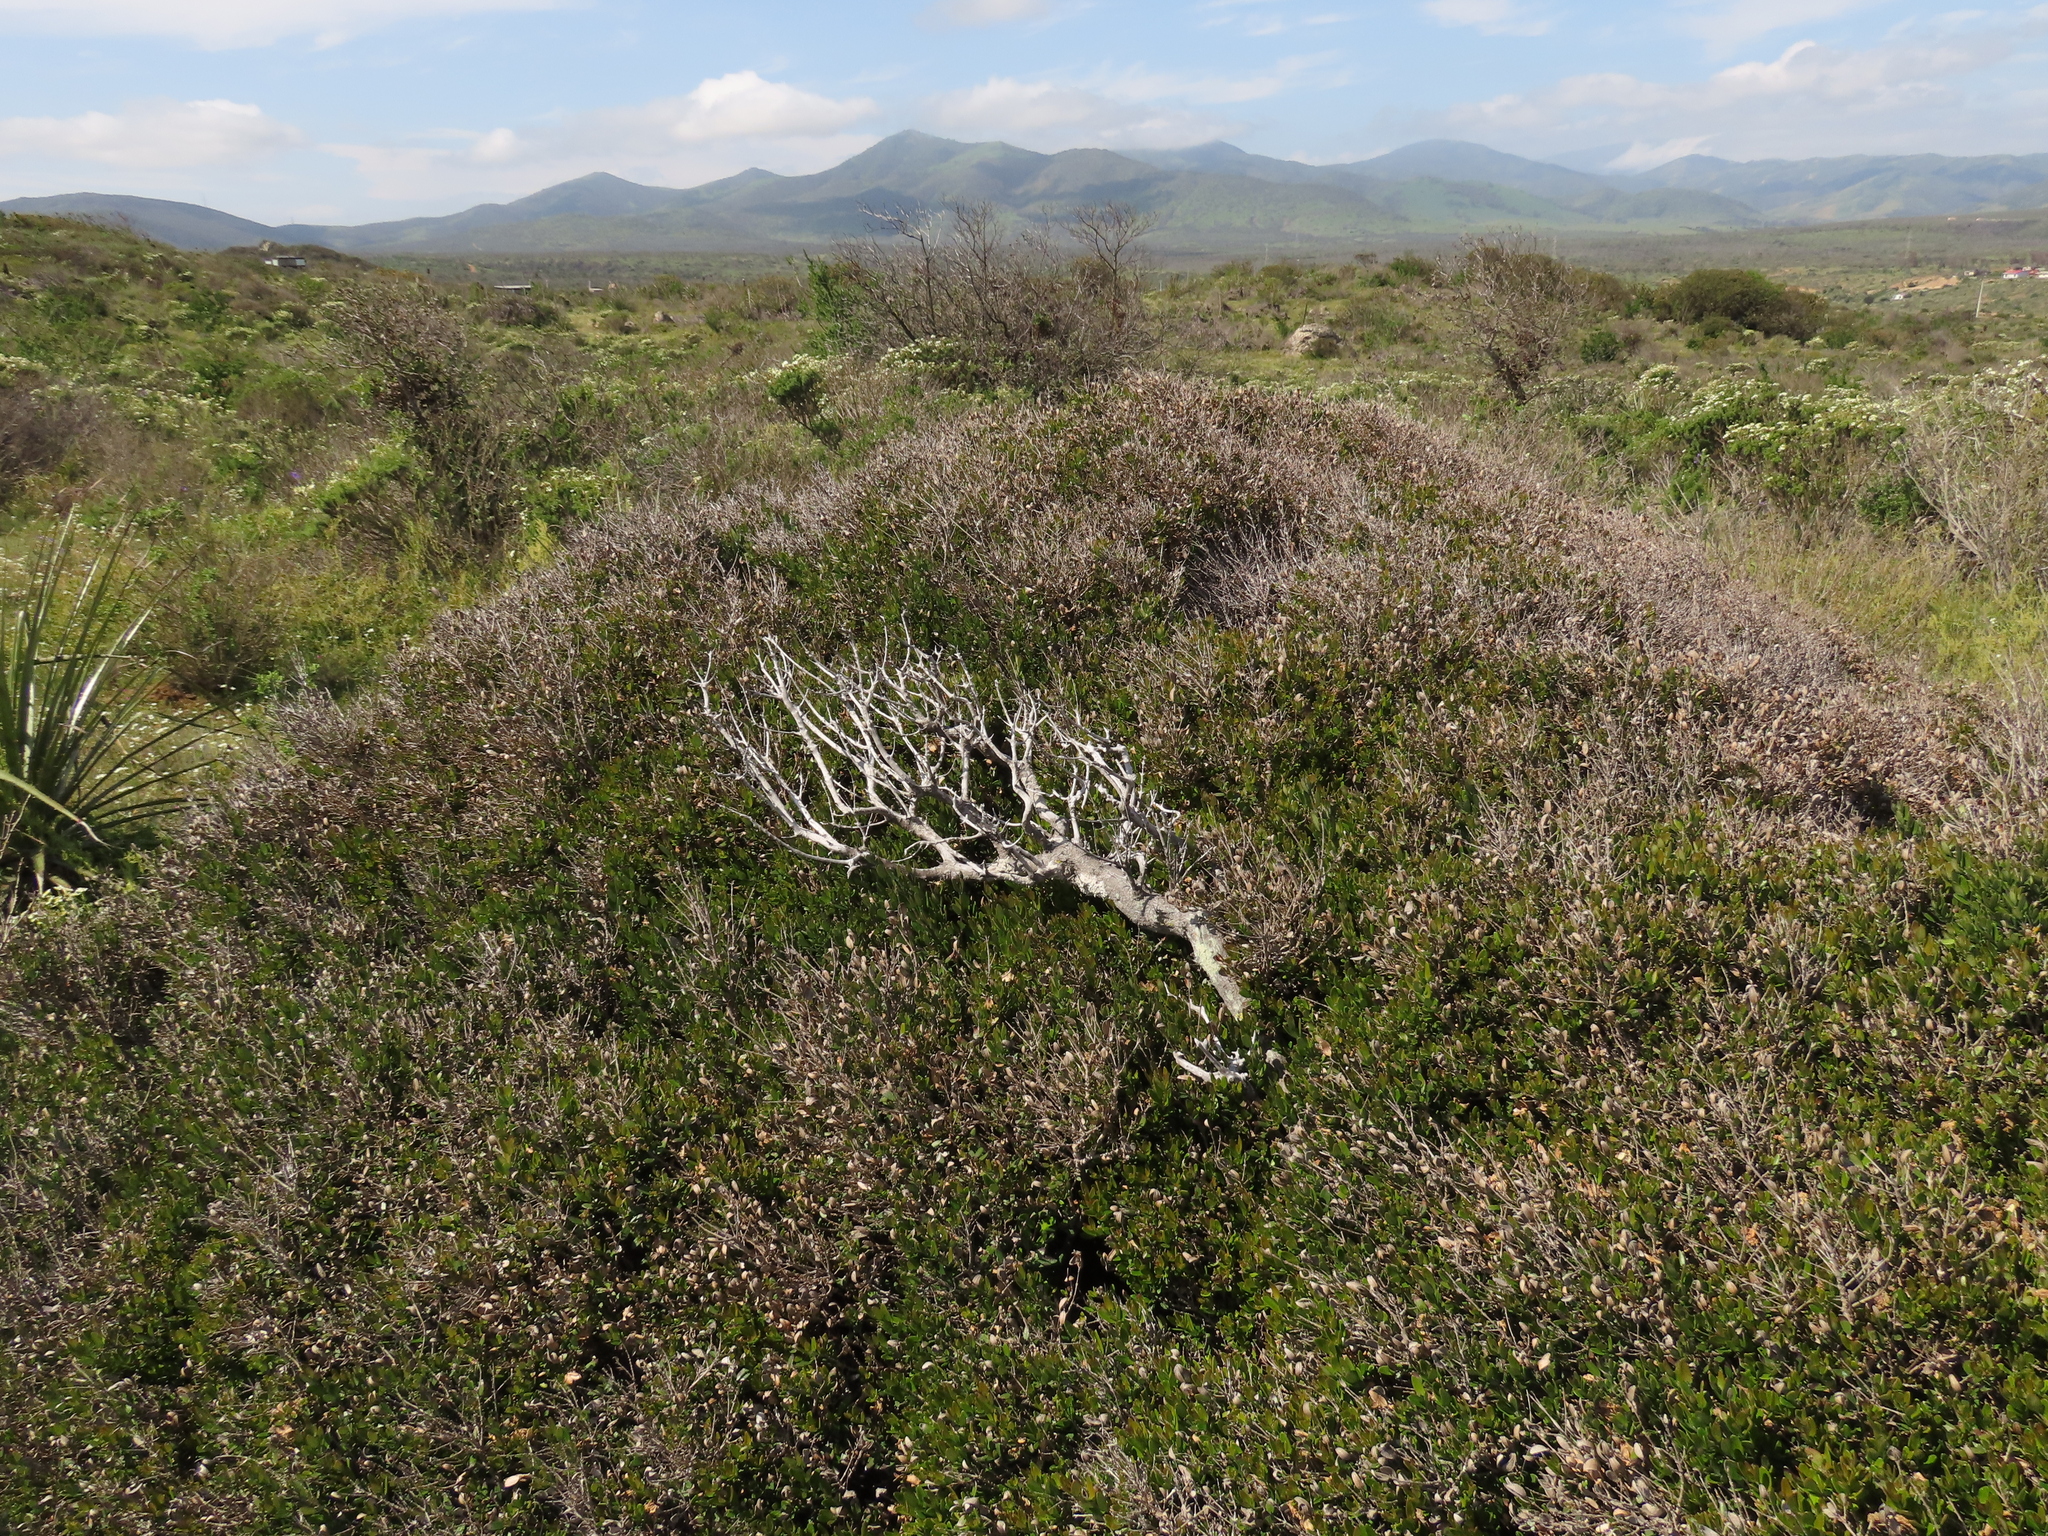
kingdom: Plantae
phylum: Tracheophyta
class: Magnoliopsida
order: Myrtales
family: Myrtaceae
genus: Myrceugenia
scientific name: Myrceugenia rufa
